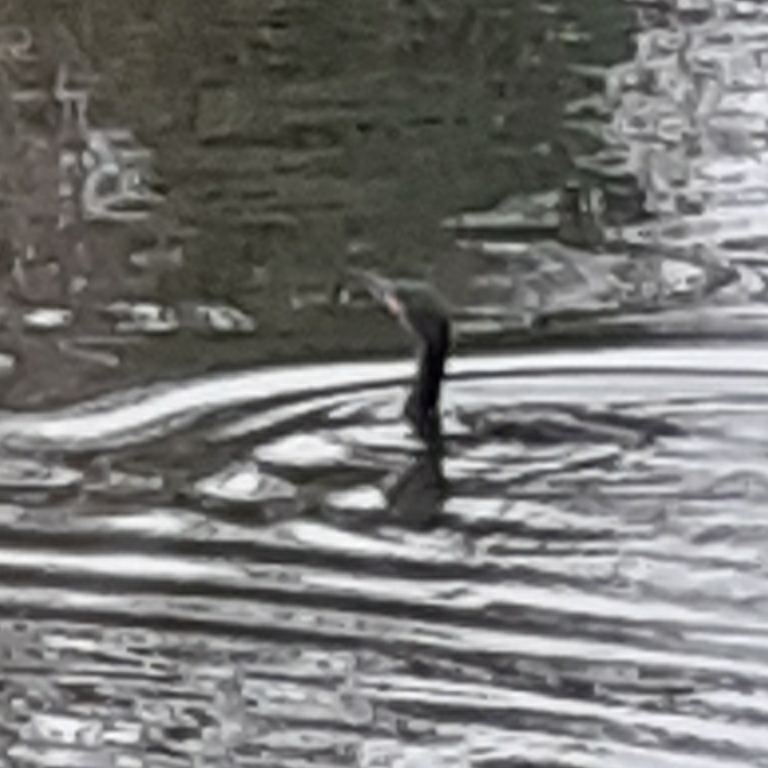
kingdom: Animalia
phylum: Chordata
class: Aves
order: Suliformes
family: Phalacrocoracidae
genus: Phalacrocorax
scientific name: Phalacrocorax carbo
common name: Great cormorant
